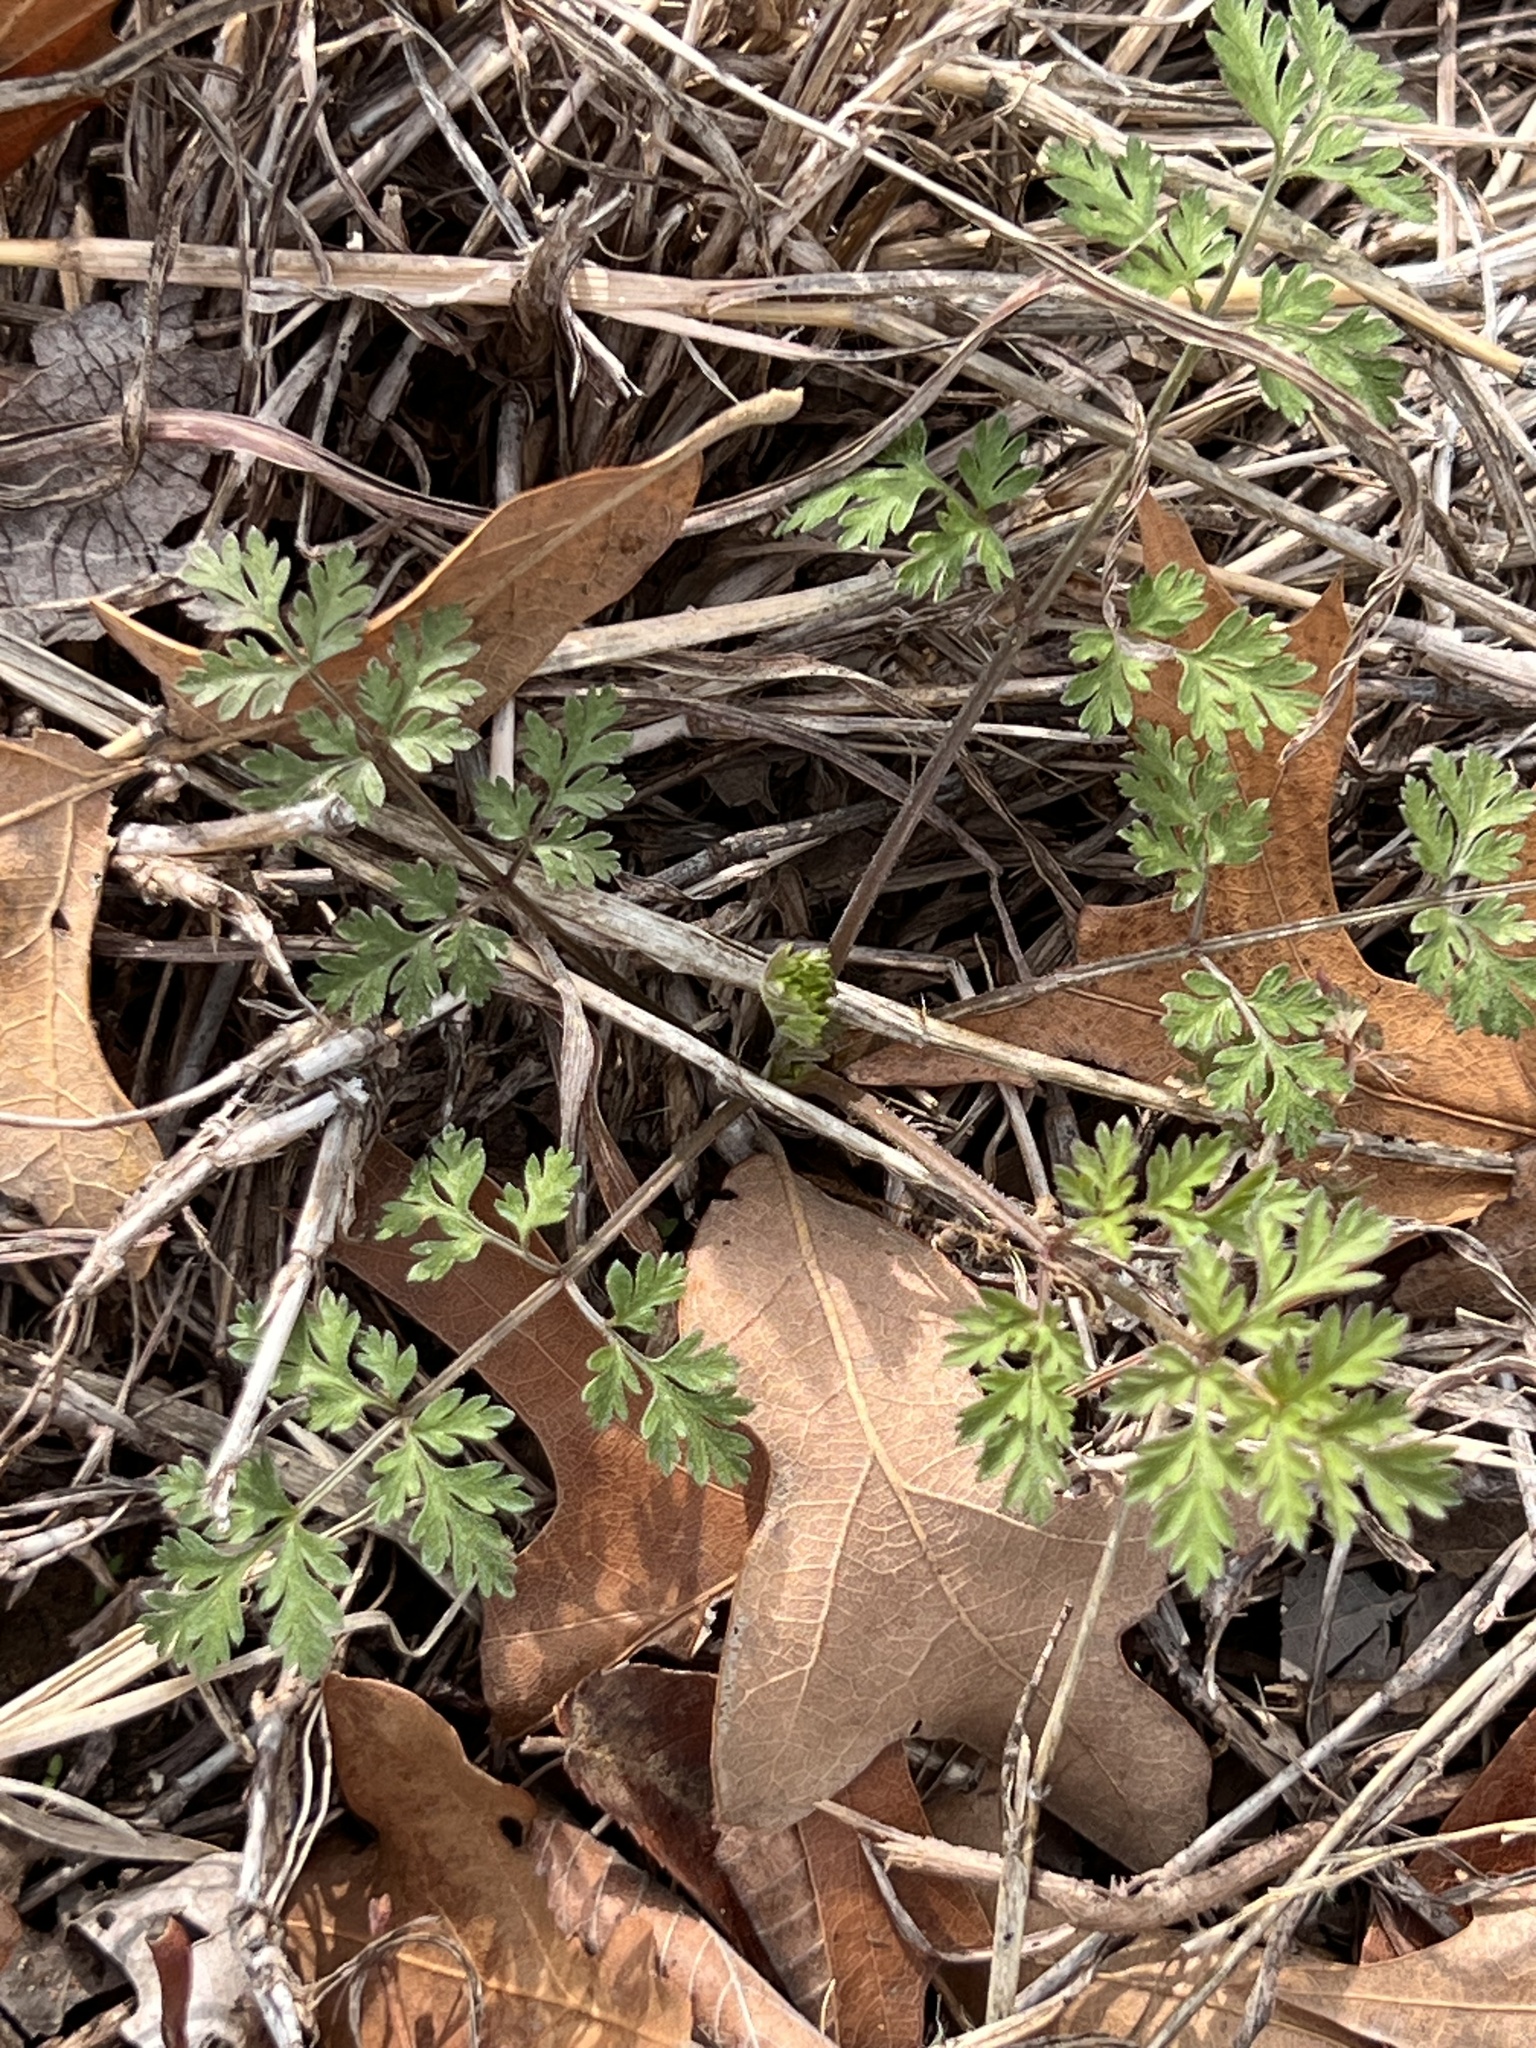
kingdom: Plantae
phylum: Tracheophyta
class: Magnoliopsida
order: Apiales
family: Apiaceae
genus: Torilis
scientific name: Torilis arvensis
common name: Spreading hedge-parsley
